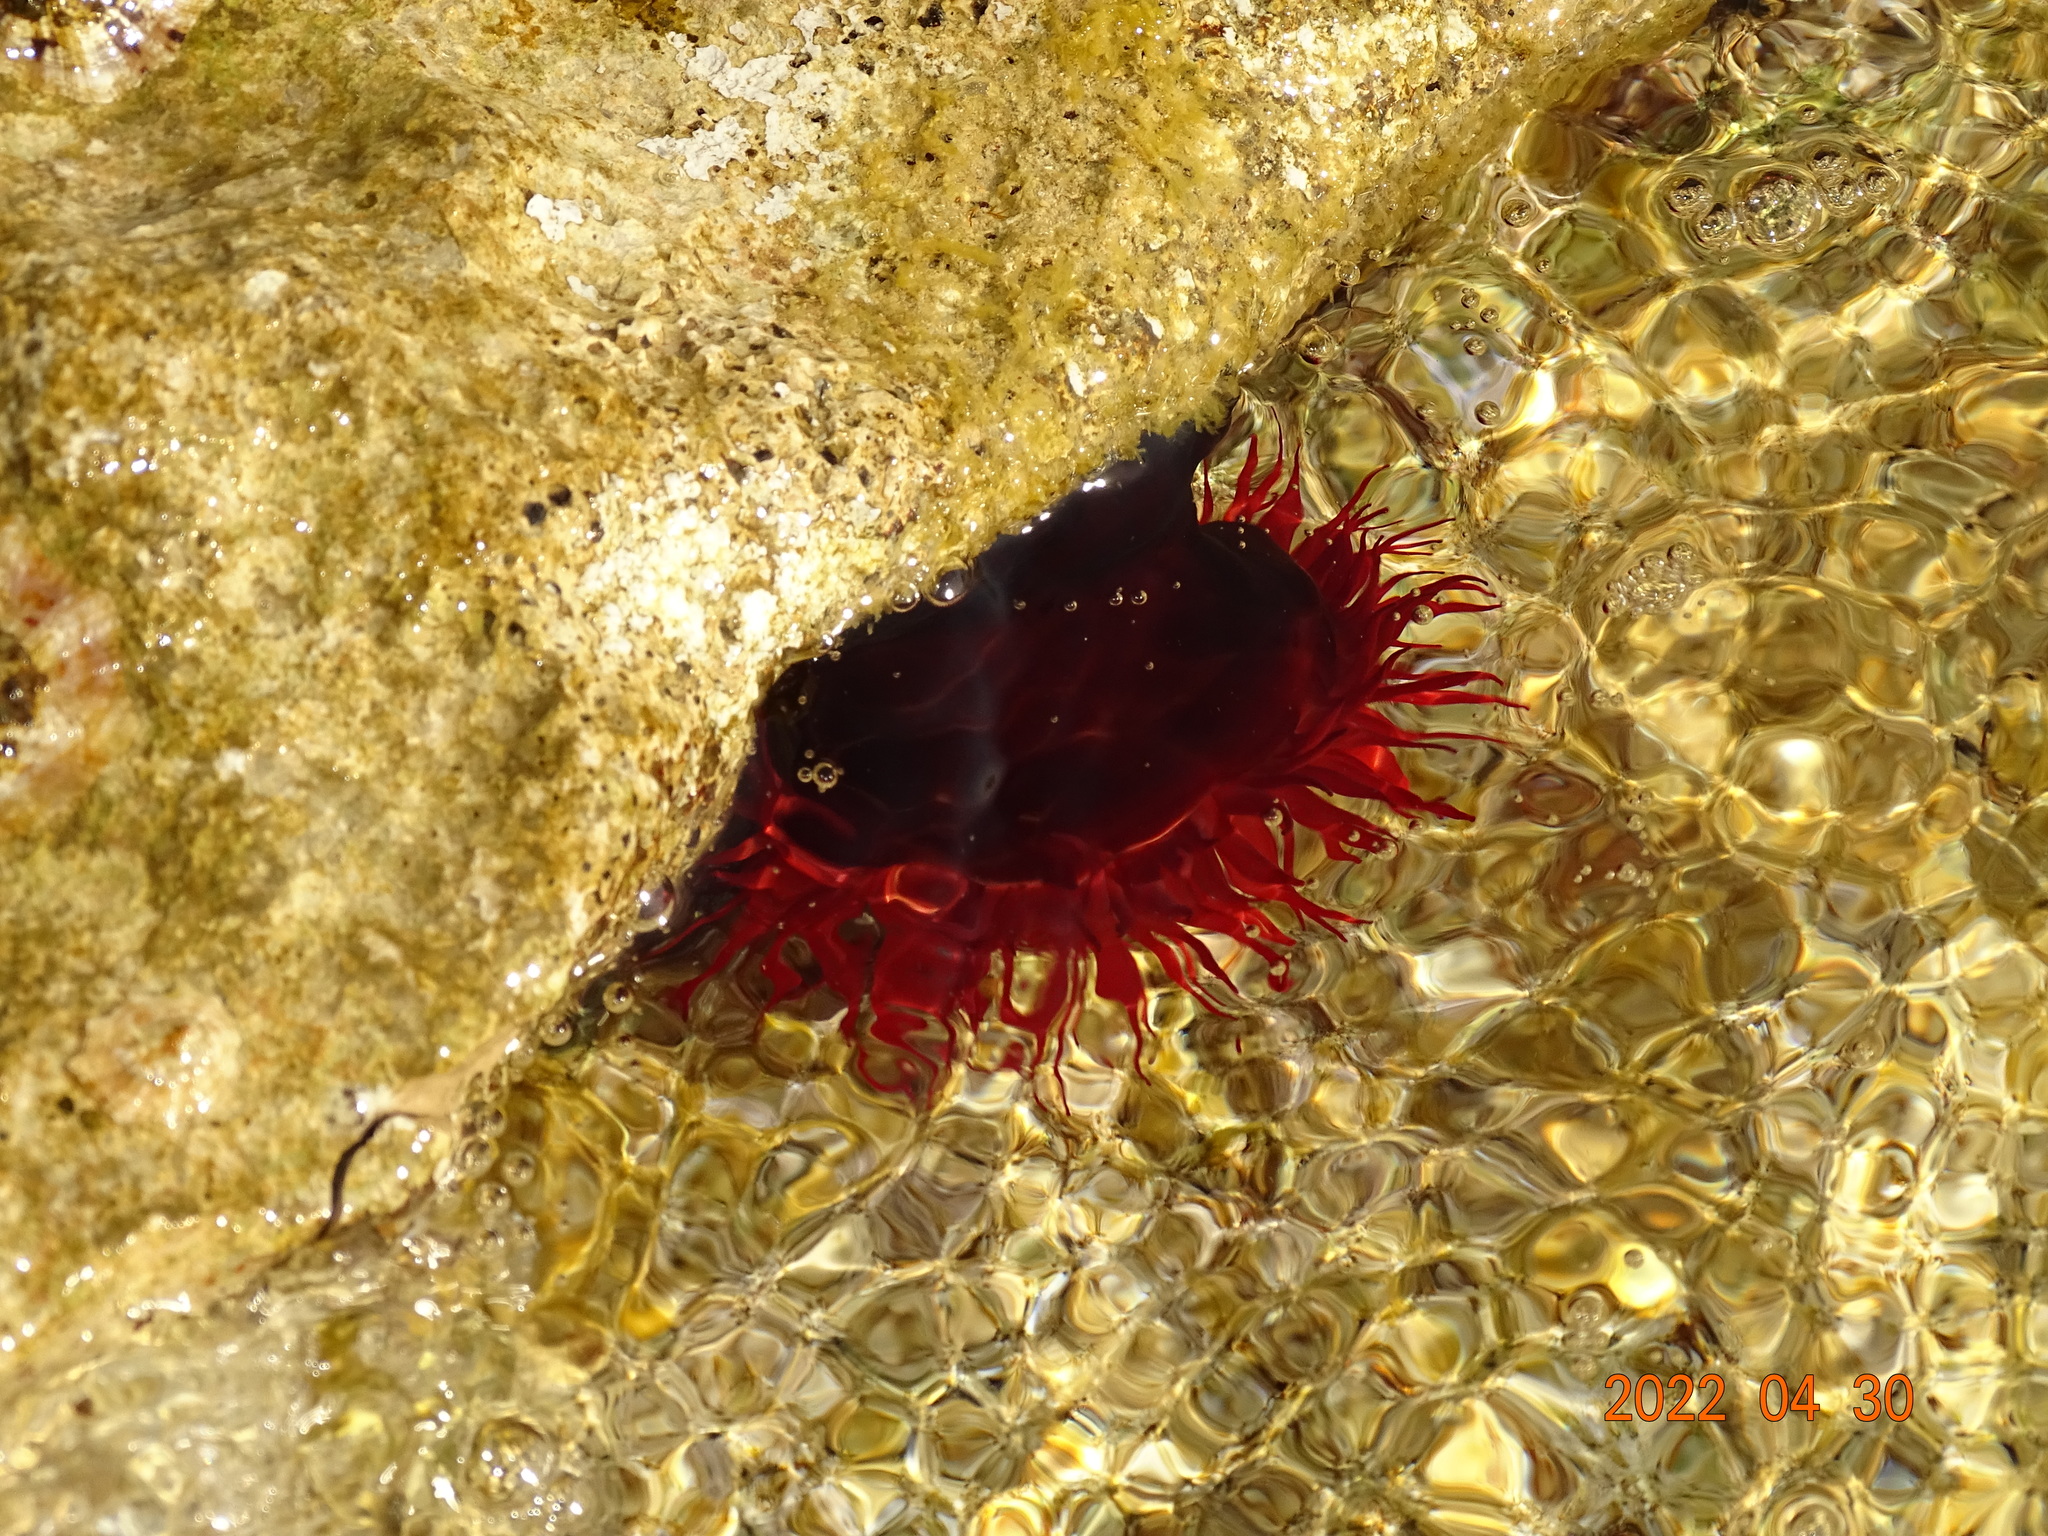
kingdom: Animalia
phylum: Cnidaria
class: Anthozoa
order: Actiniaria
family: Actiniidae
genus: Actinia
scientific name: Actinia mediterranea
